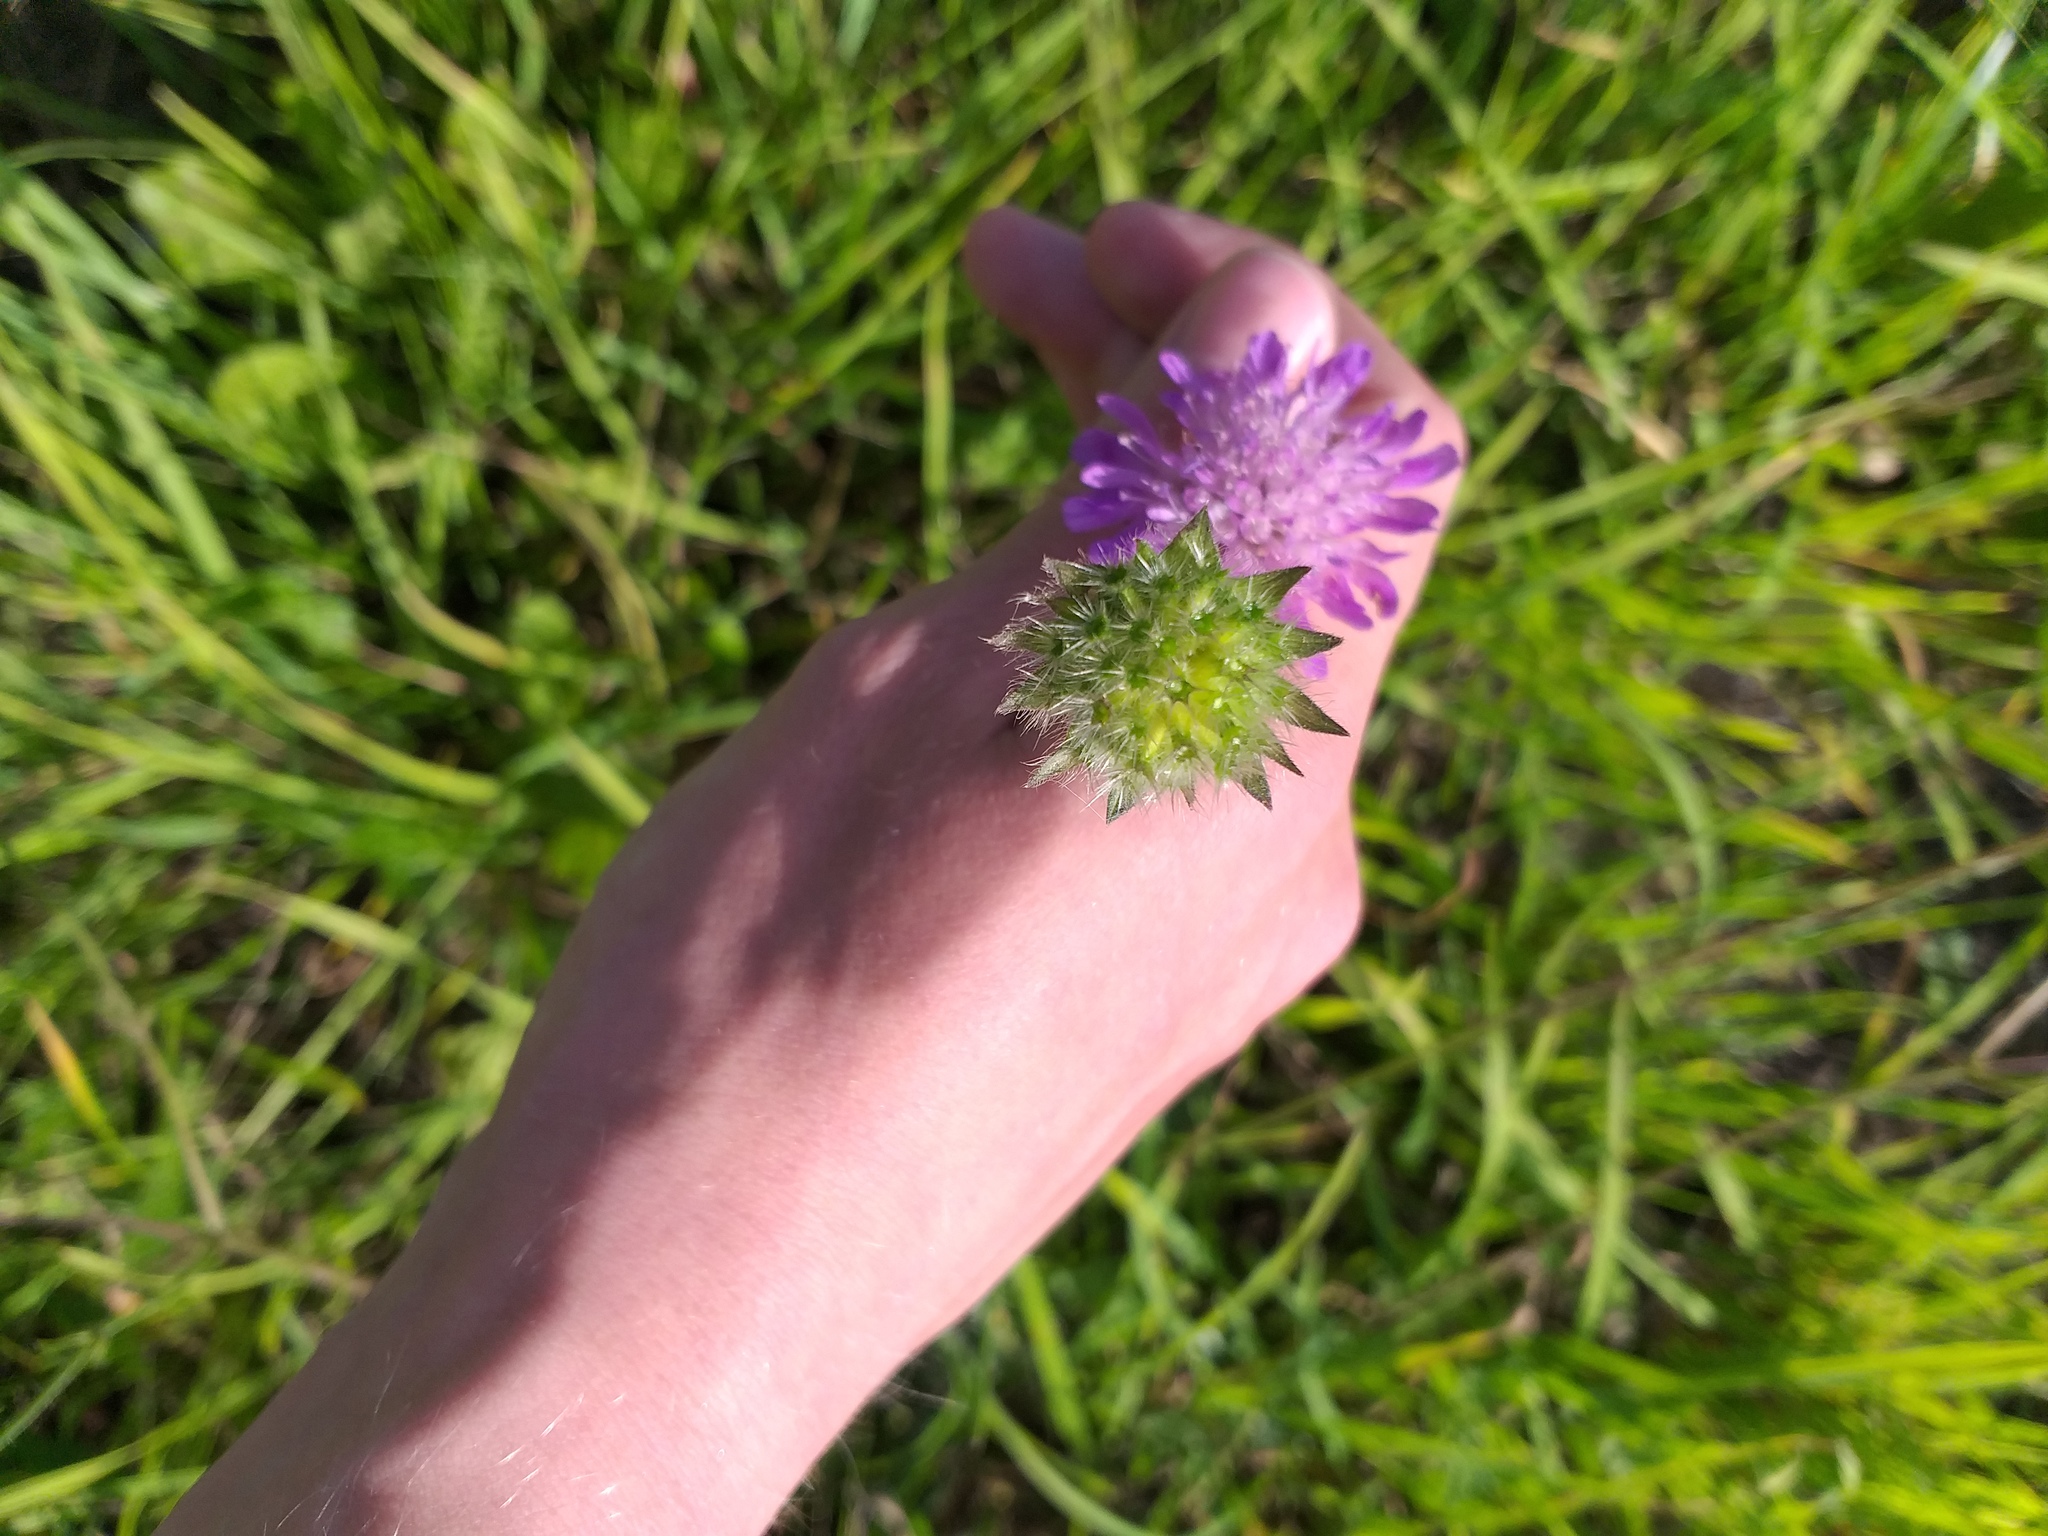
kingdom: Plantae
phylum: Tracheophyta
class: Magnoliopsida
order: Dipsacales
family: Caprifoliaceae
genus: Knautia
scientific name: Knautia arvensis
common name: Field scabiosa
